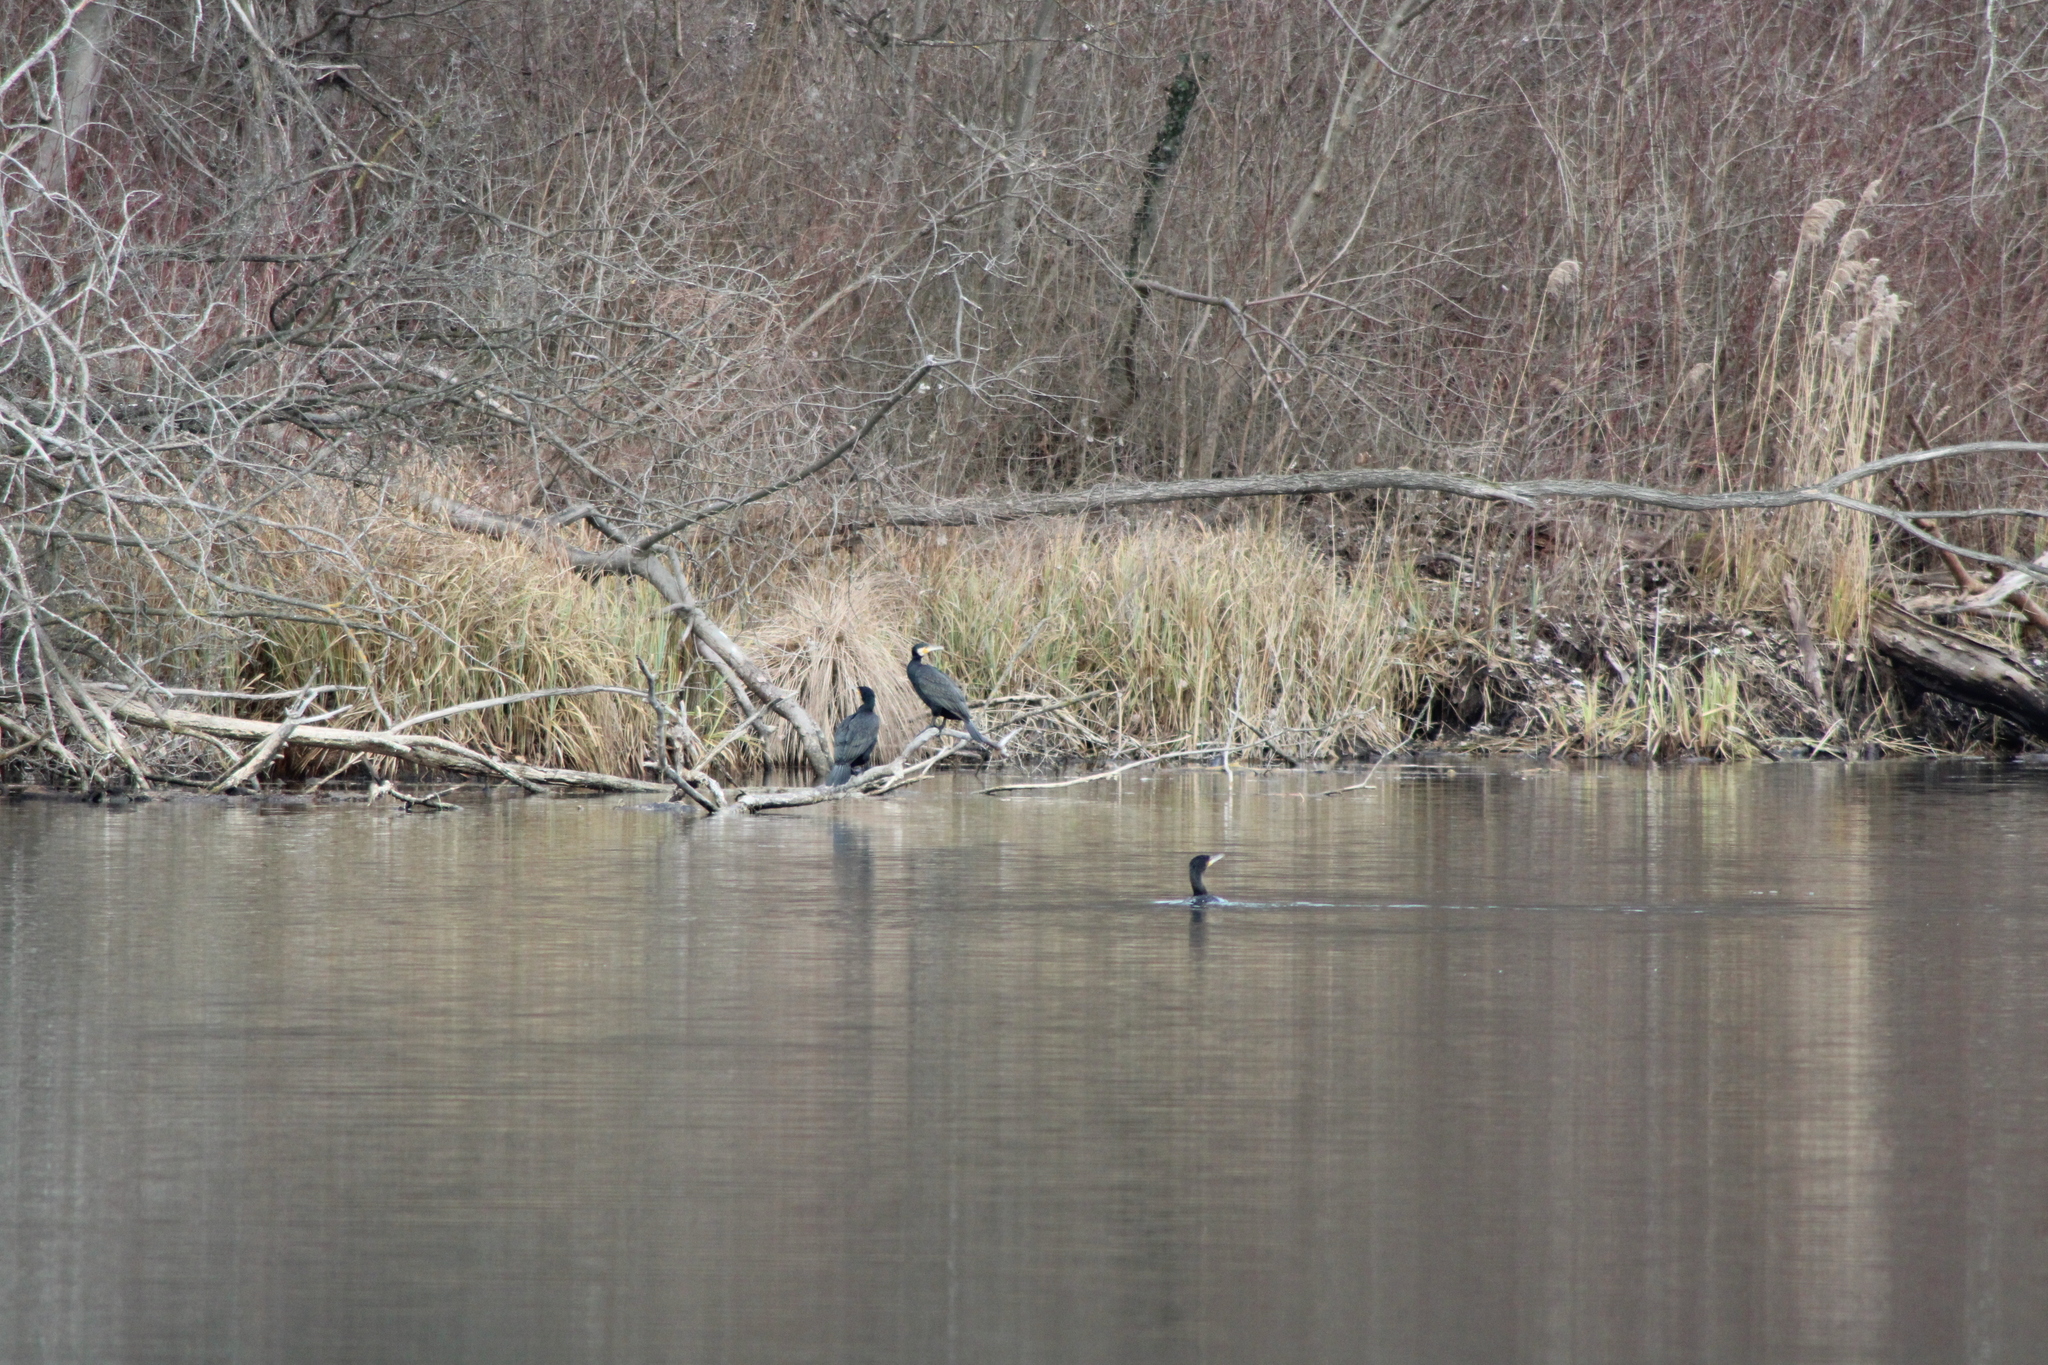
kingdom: Animalia
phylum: Chordata
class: Aves
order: Suliformes
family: Phalacrocoracidae
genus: Phalacrocorax
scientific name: Phalacrocorax carbo
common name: Great cormorant
